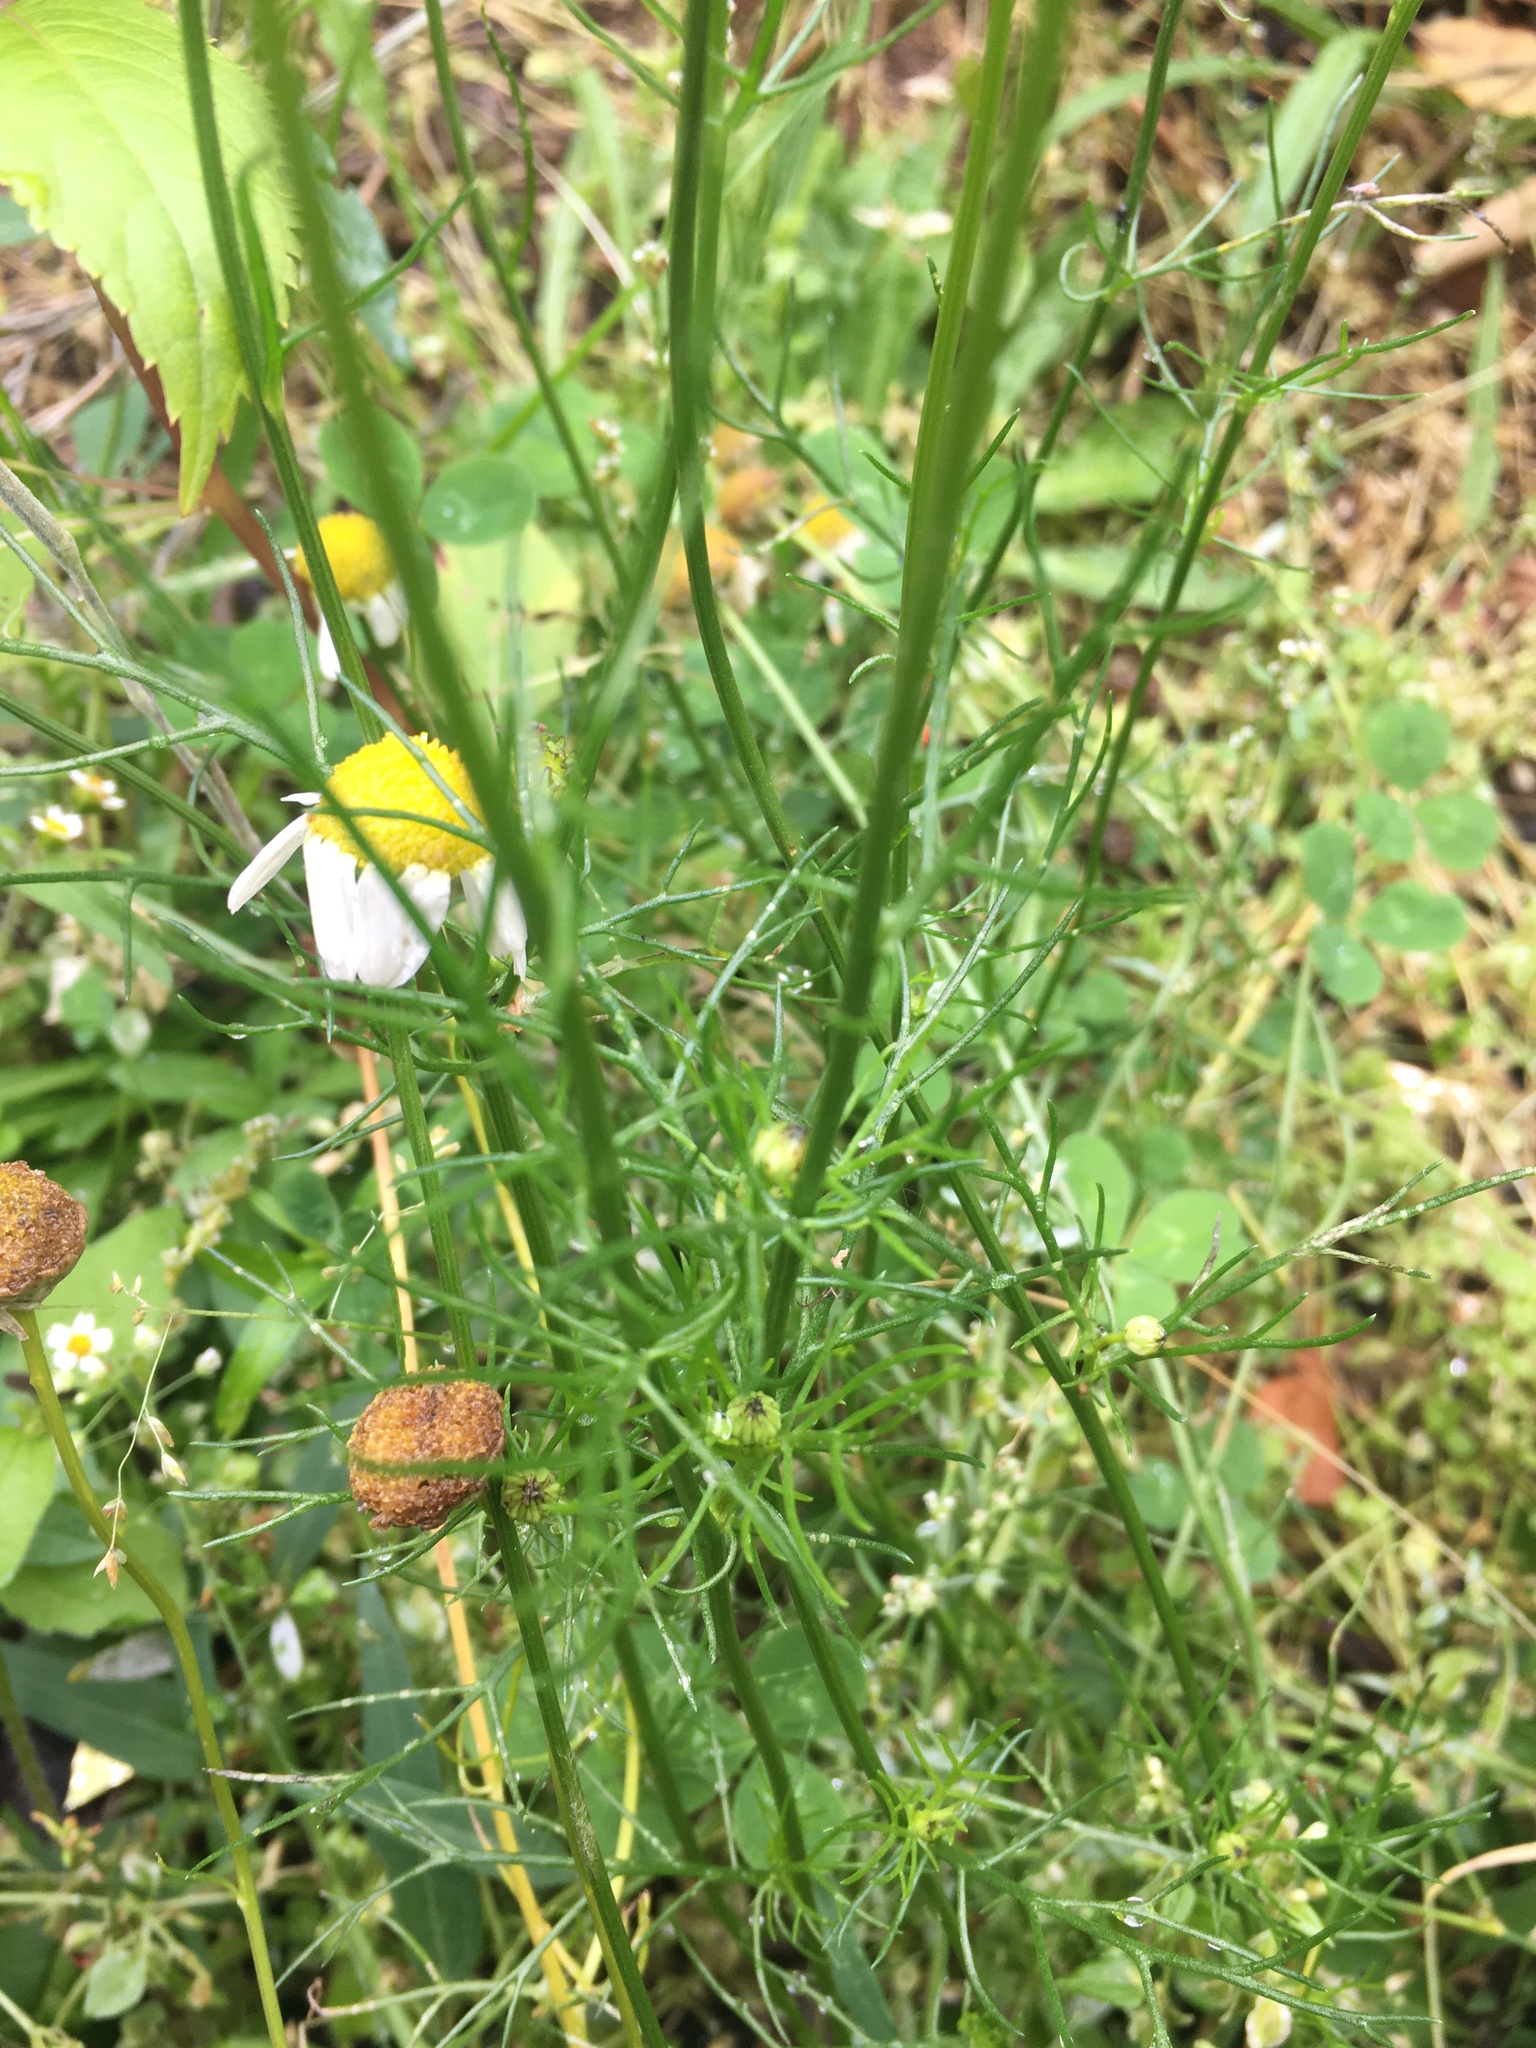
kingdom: Plantae
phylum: Tracheophyta
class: Magnoliopsida
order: Asterales
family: Asteraceae
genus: Tripleurospermum
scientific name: Tripleurospermum inodorum
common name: Scentless mayweed
